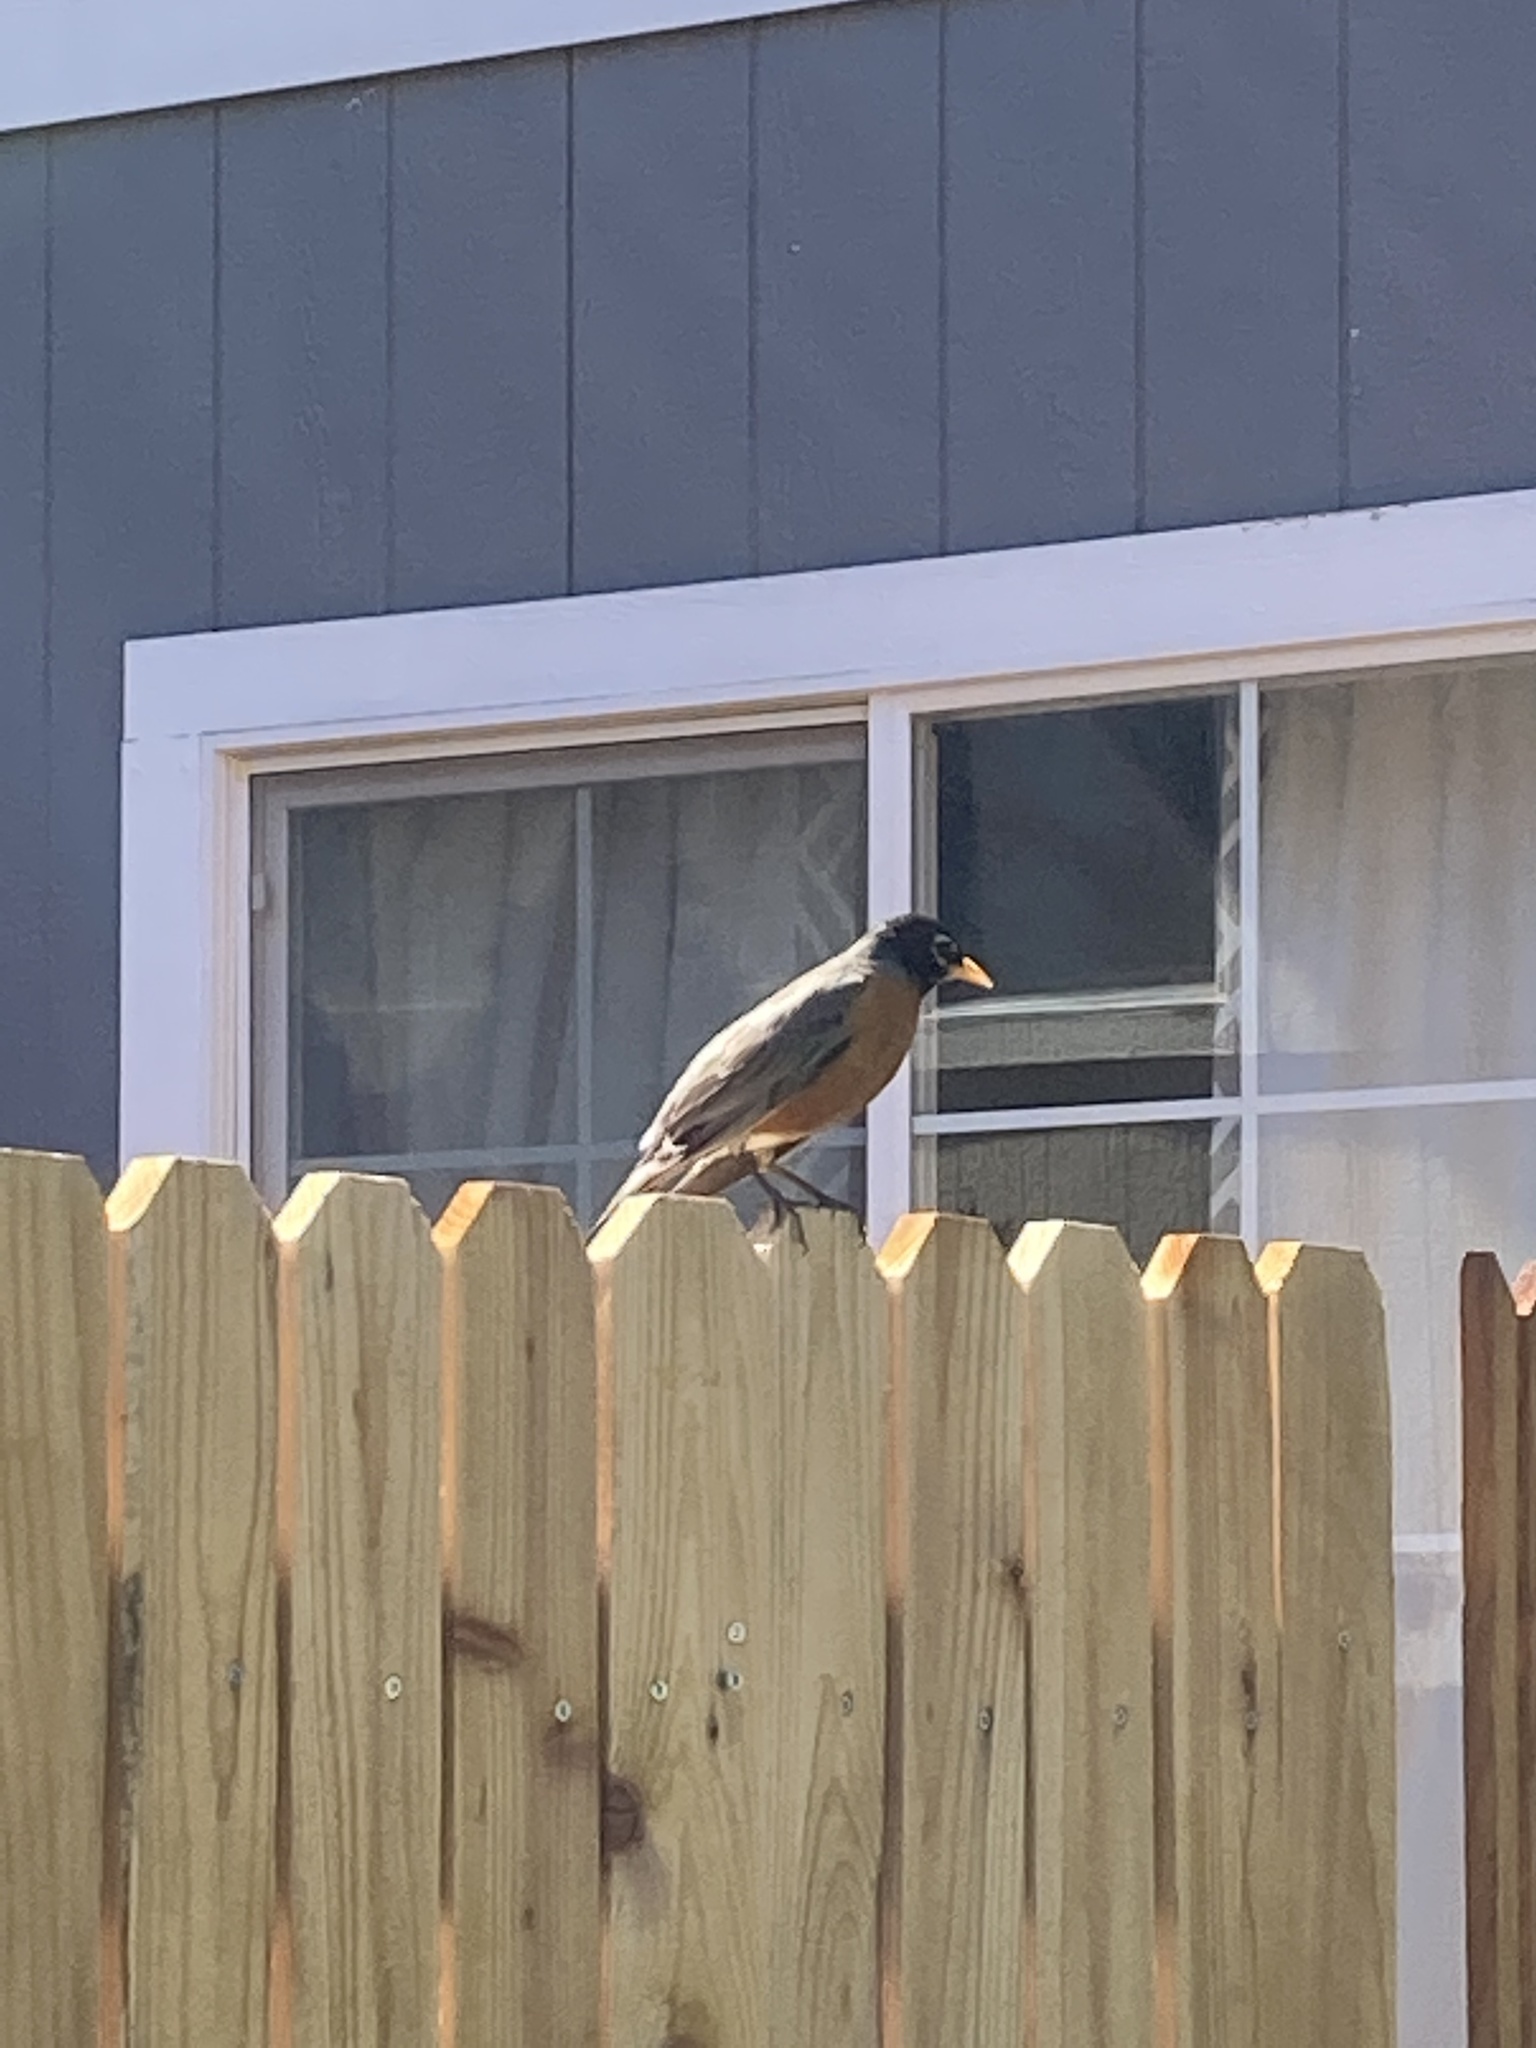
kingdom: Animalia
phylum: Chordata
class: Aves
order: Passeriformes
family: Turdidae
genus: Turdus
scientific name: Turdus migratorius
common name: American robin
